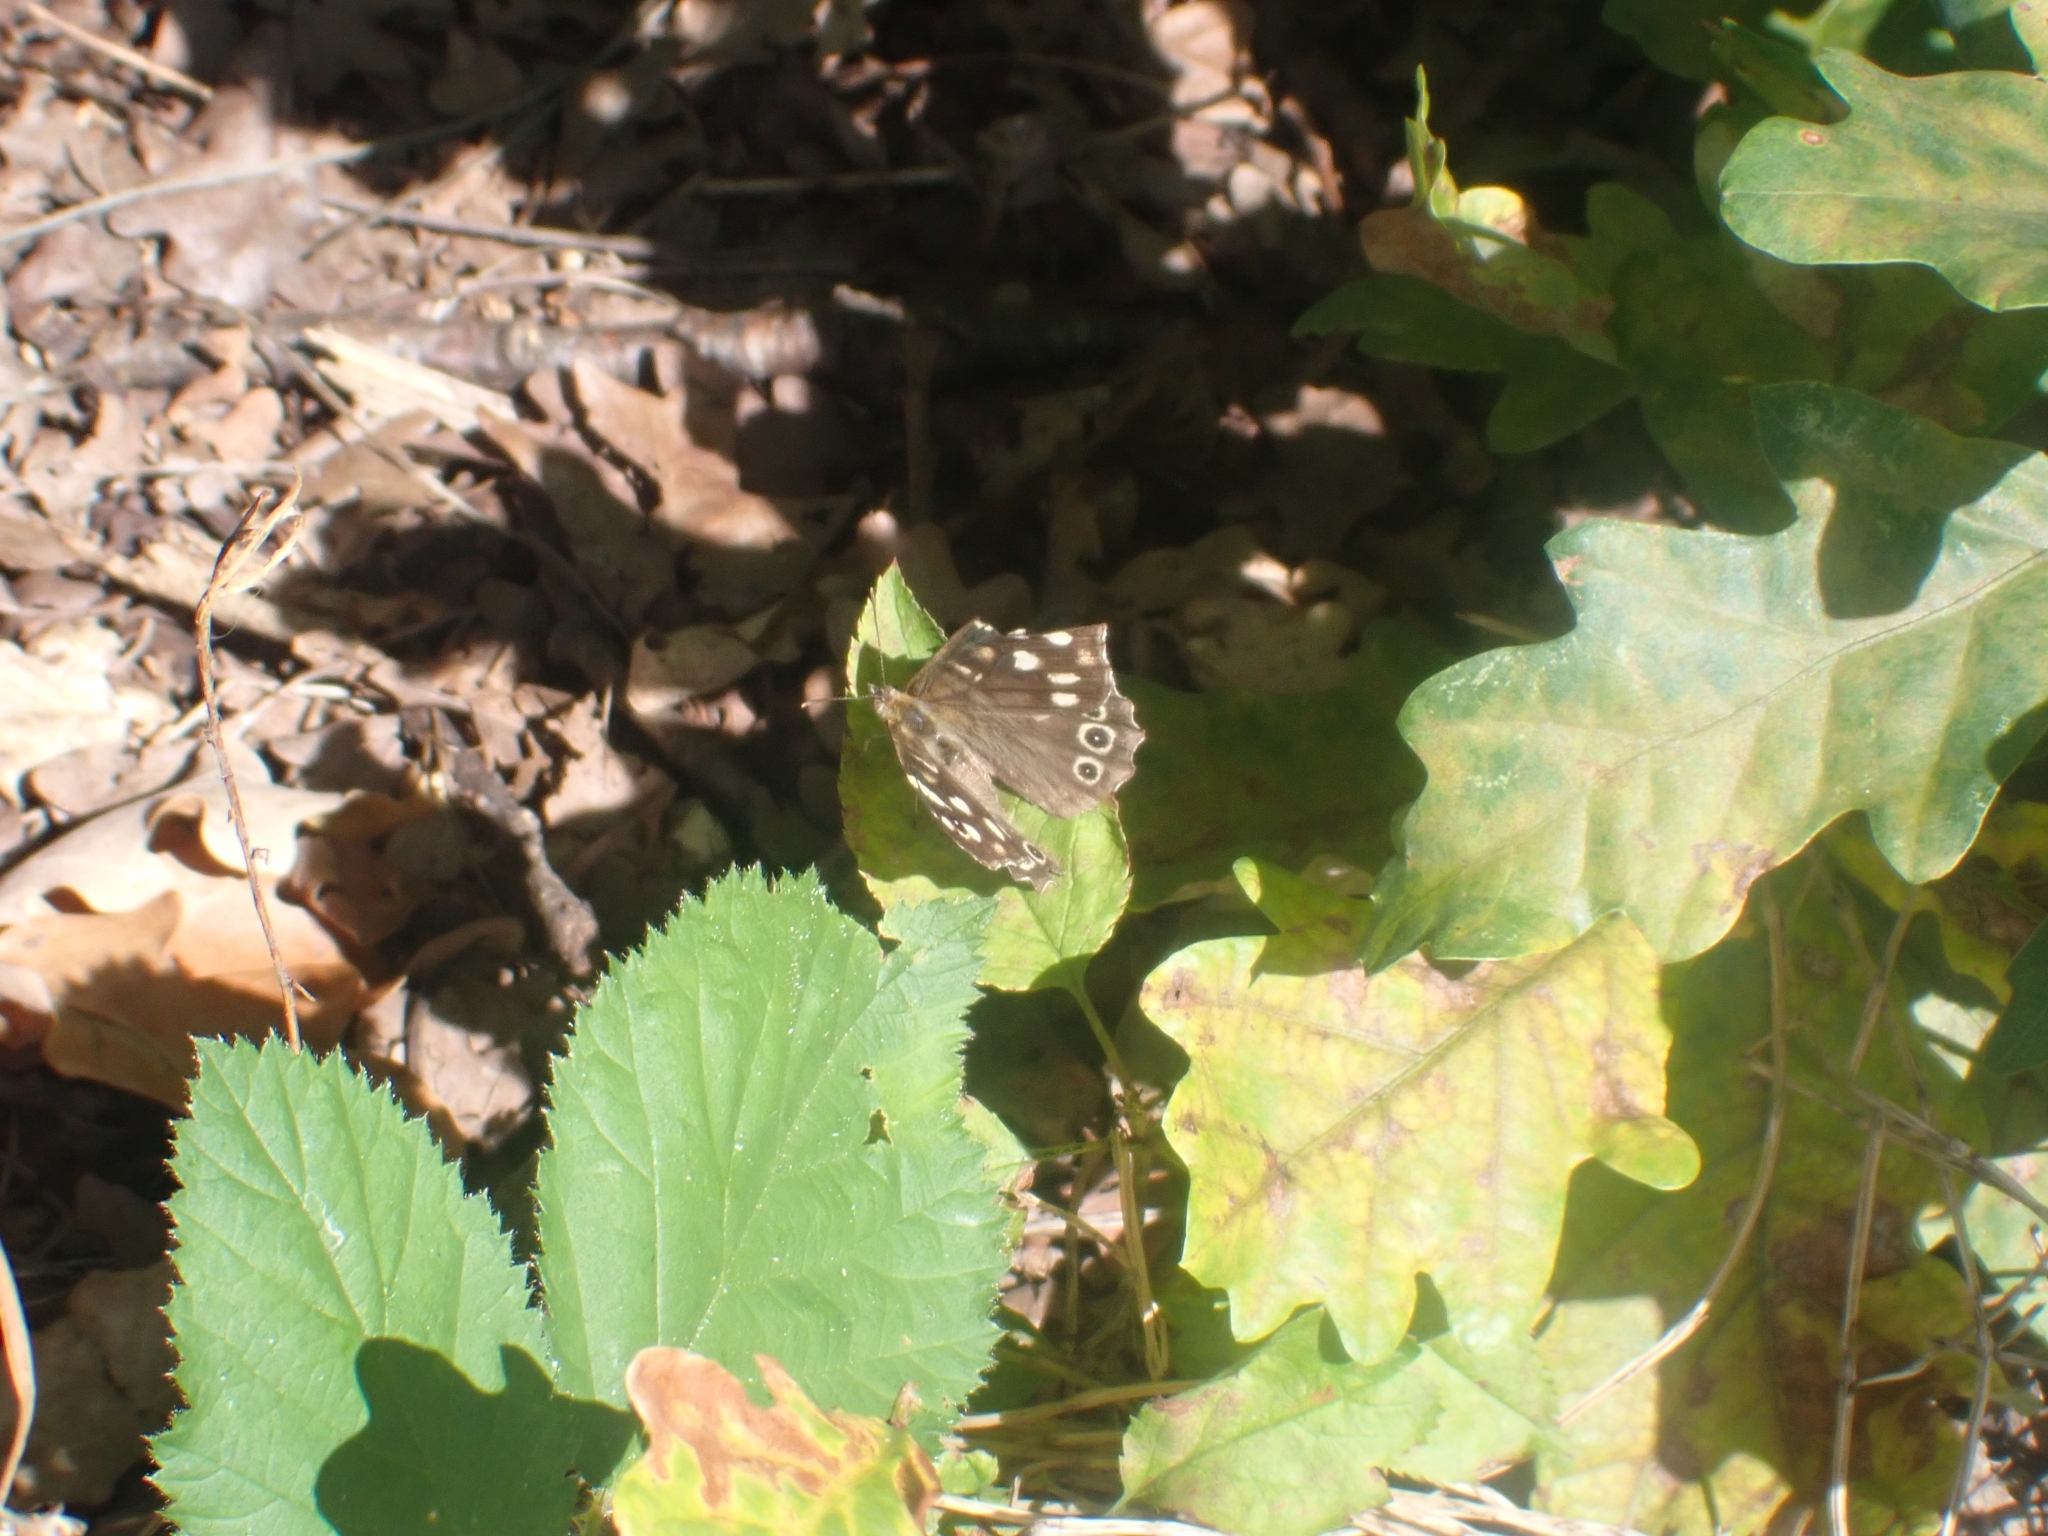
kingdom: Animalia
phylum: Arthropoda
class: Insecta
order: Lepidoptera
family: Nymphalidae
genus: Pararge
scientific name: Pararge aegeria
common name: Speckled wood
